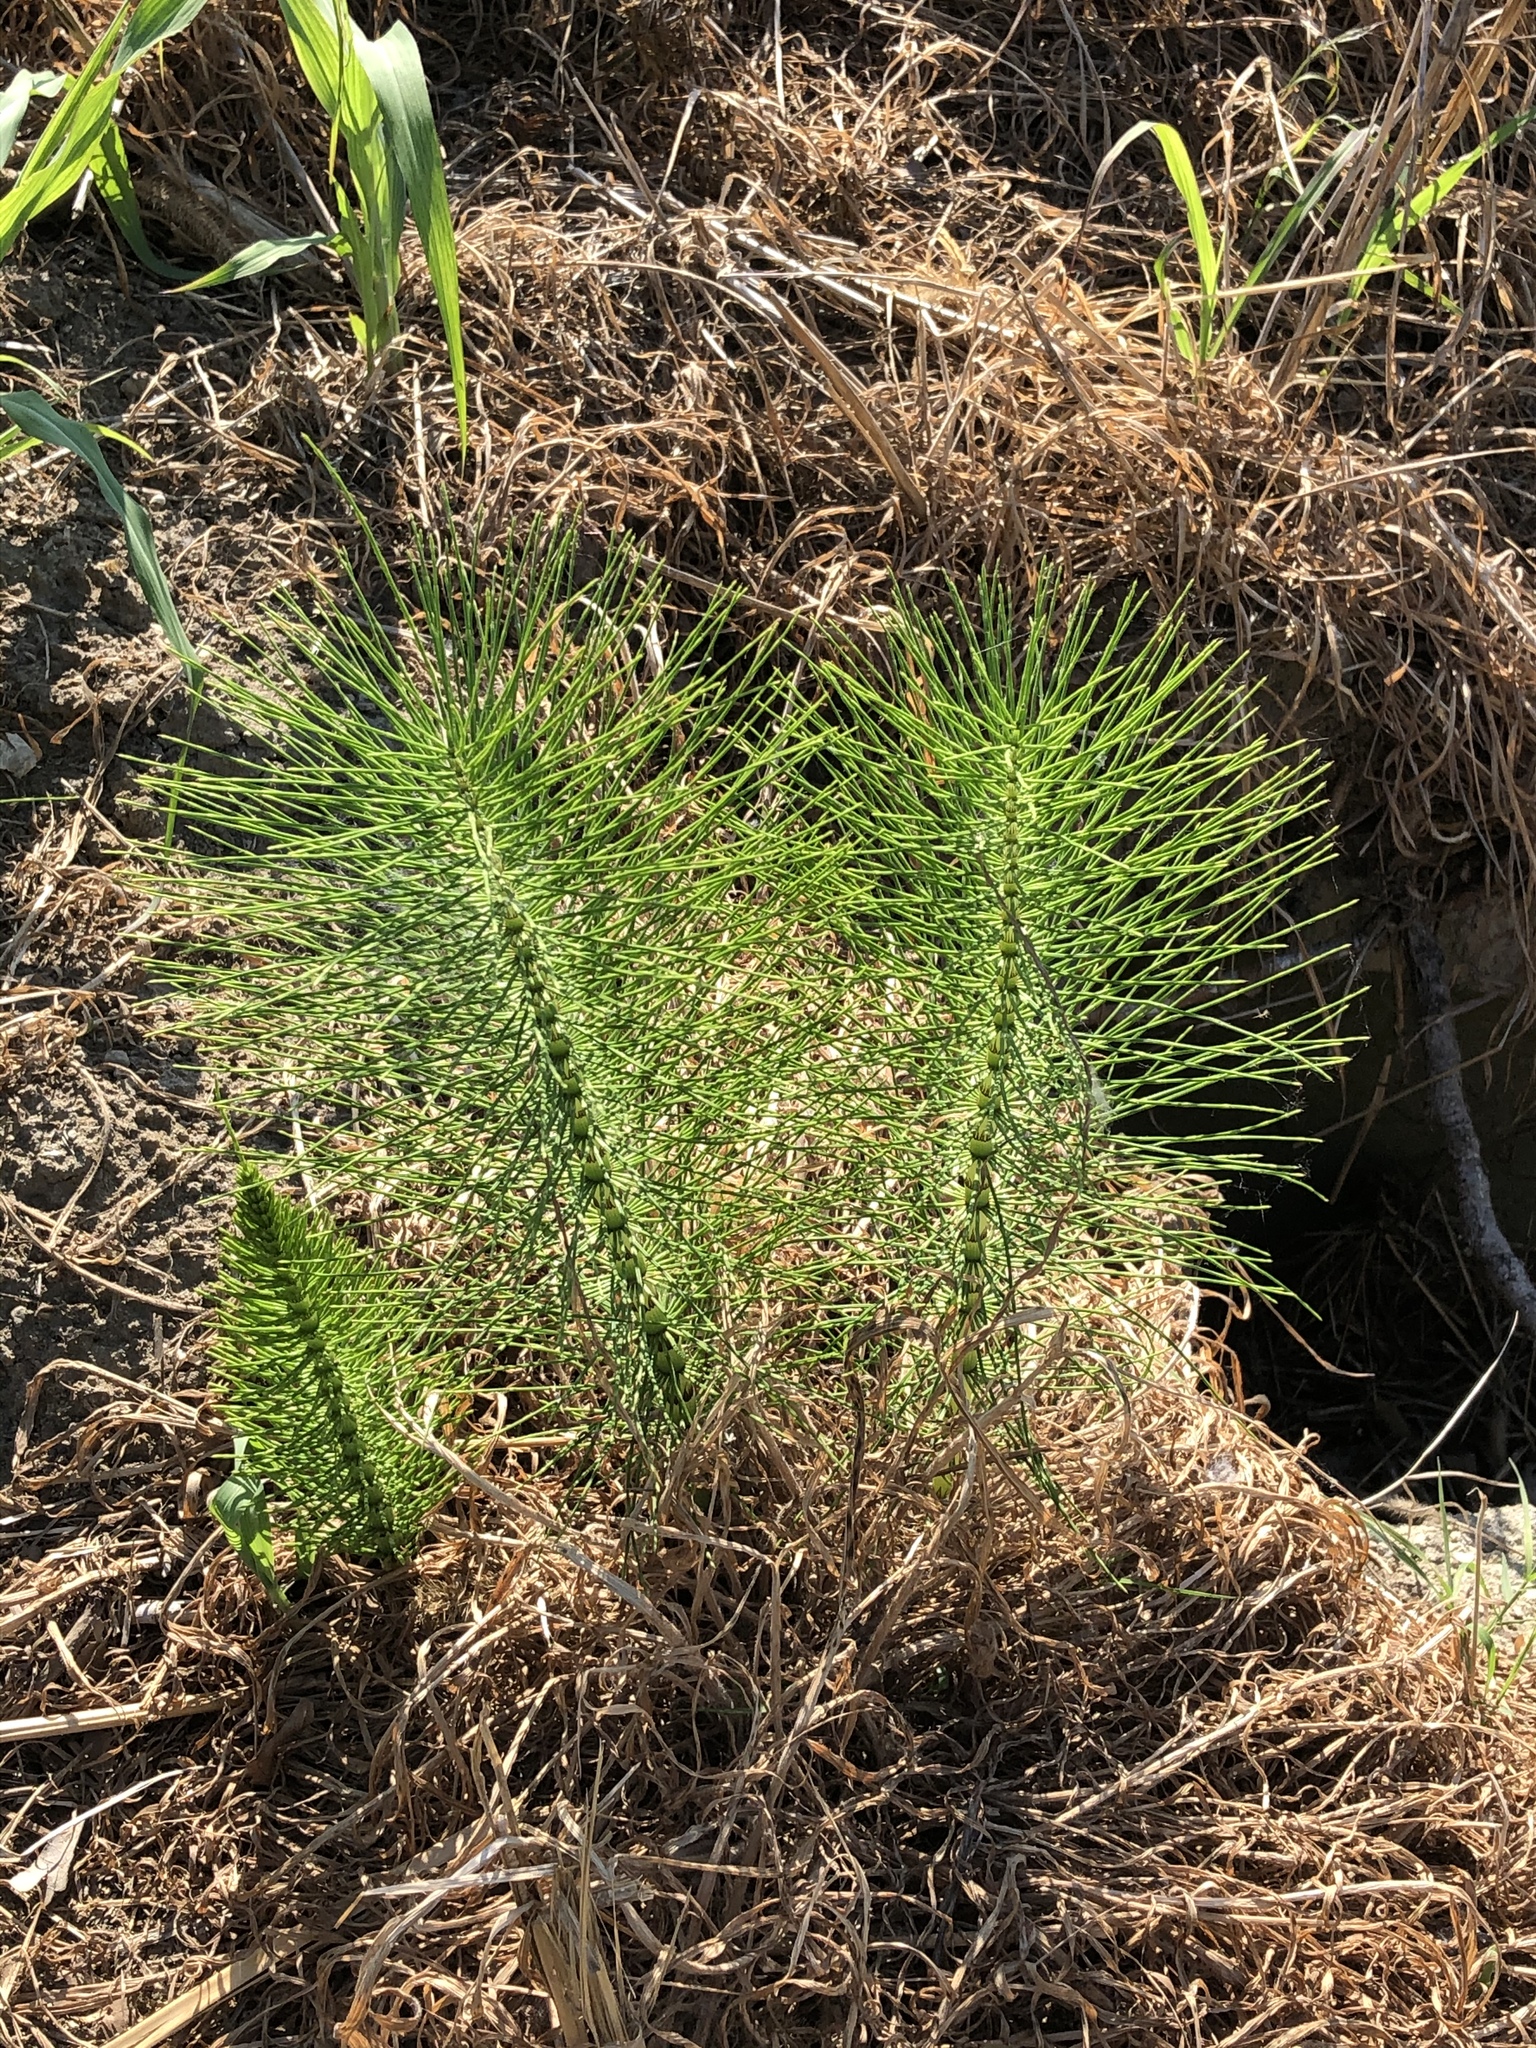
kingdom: Plantae
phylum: Tracheophyta
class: Polypodiopsida
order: Equisetales
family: Equisetaceae
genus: Equisetum
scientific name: Equisetum telmateia
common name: Great horsetail
